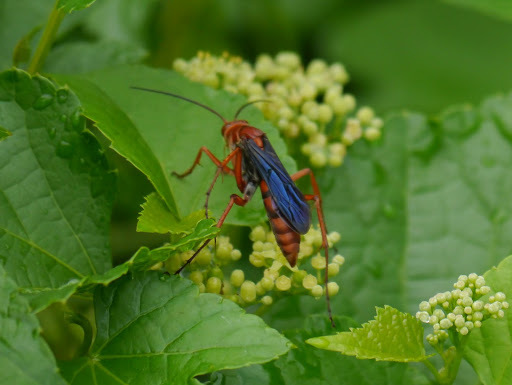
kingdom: Animalia
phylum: Arthropoda
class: Insecta
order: Hymenoptera
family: Pompilidae
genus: Tachypompilus
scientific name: Tachypompilus ferrugineus
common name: Rusty spider wasp
